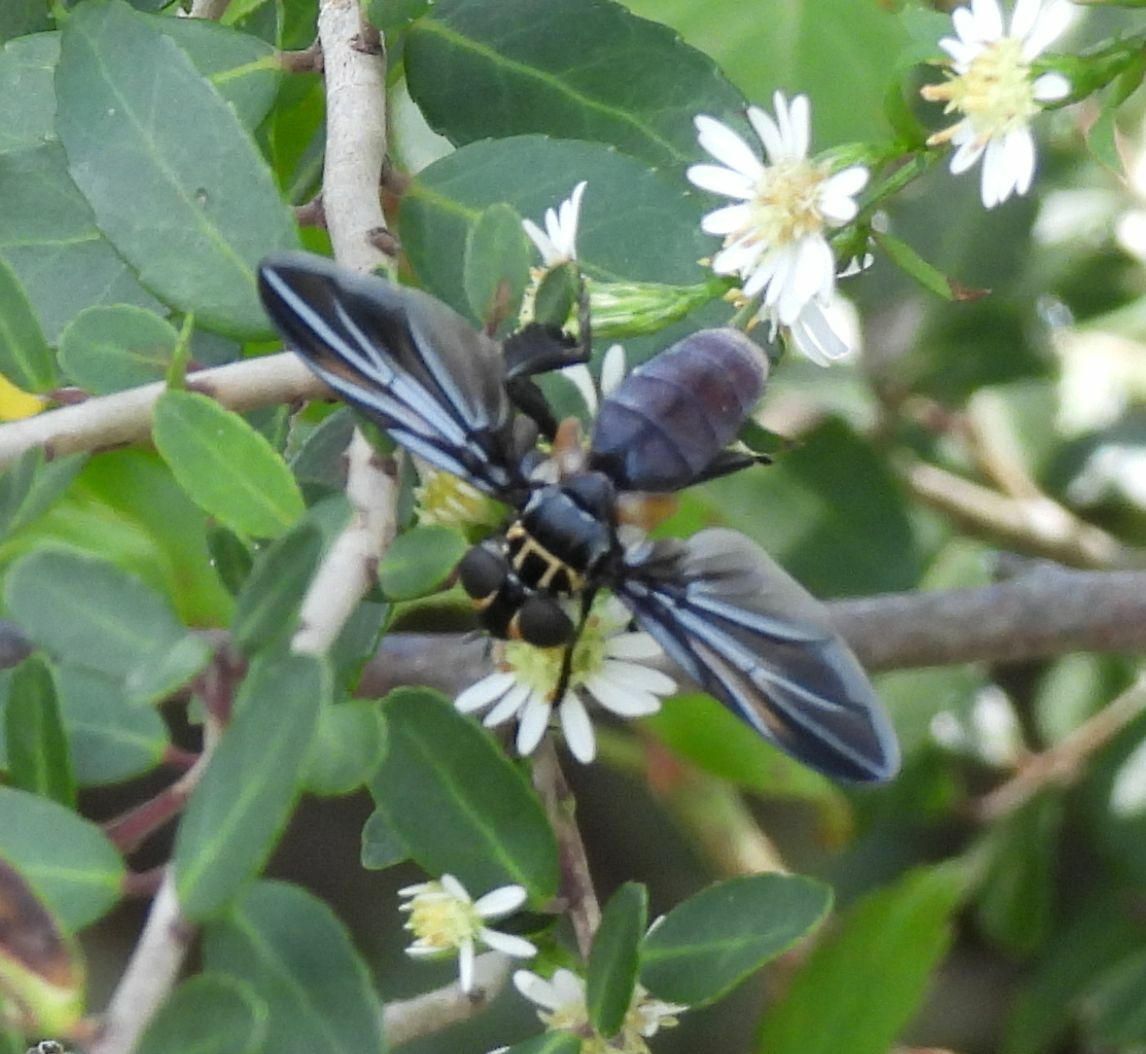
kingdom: Animalia
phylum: Arthropoda
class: Insecta
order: Diptera
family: Tachinidae
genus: Trichopoda
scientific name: Trichopoda lanipes
